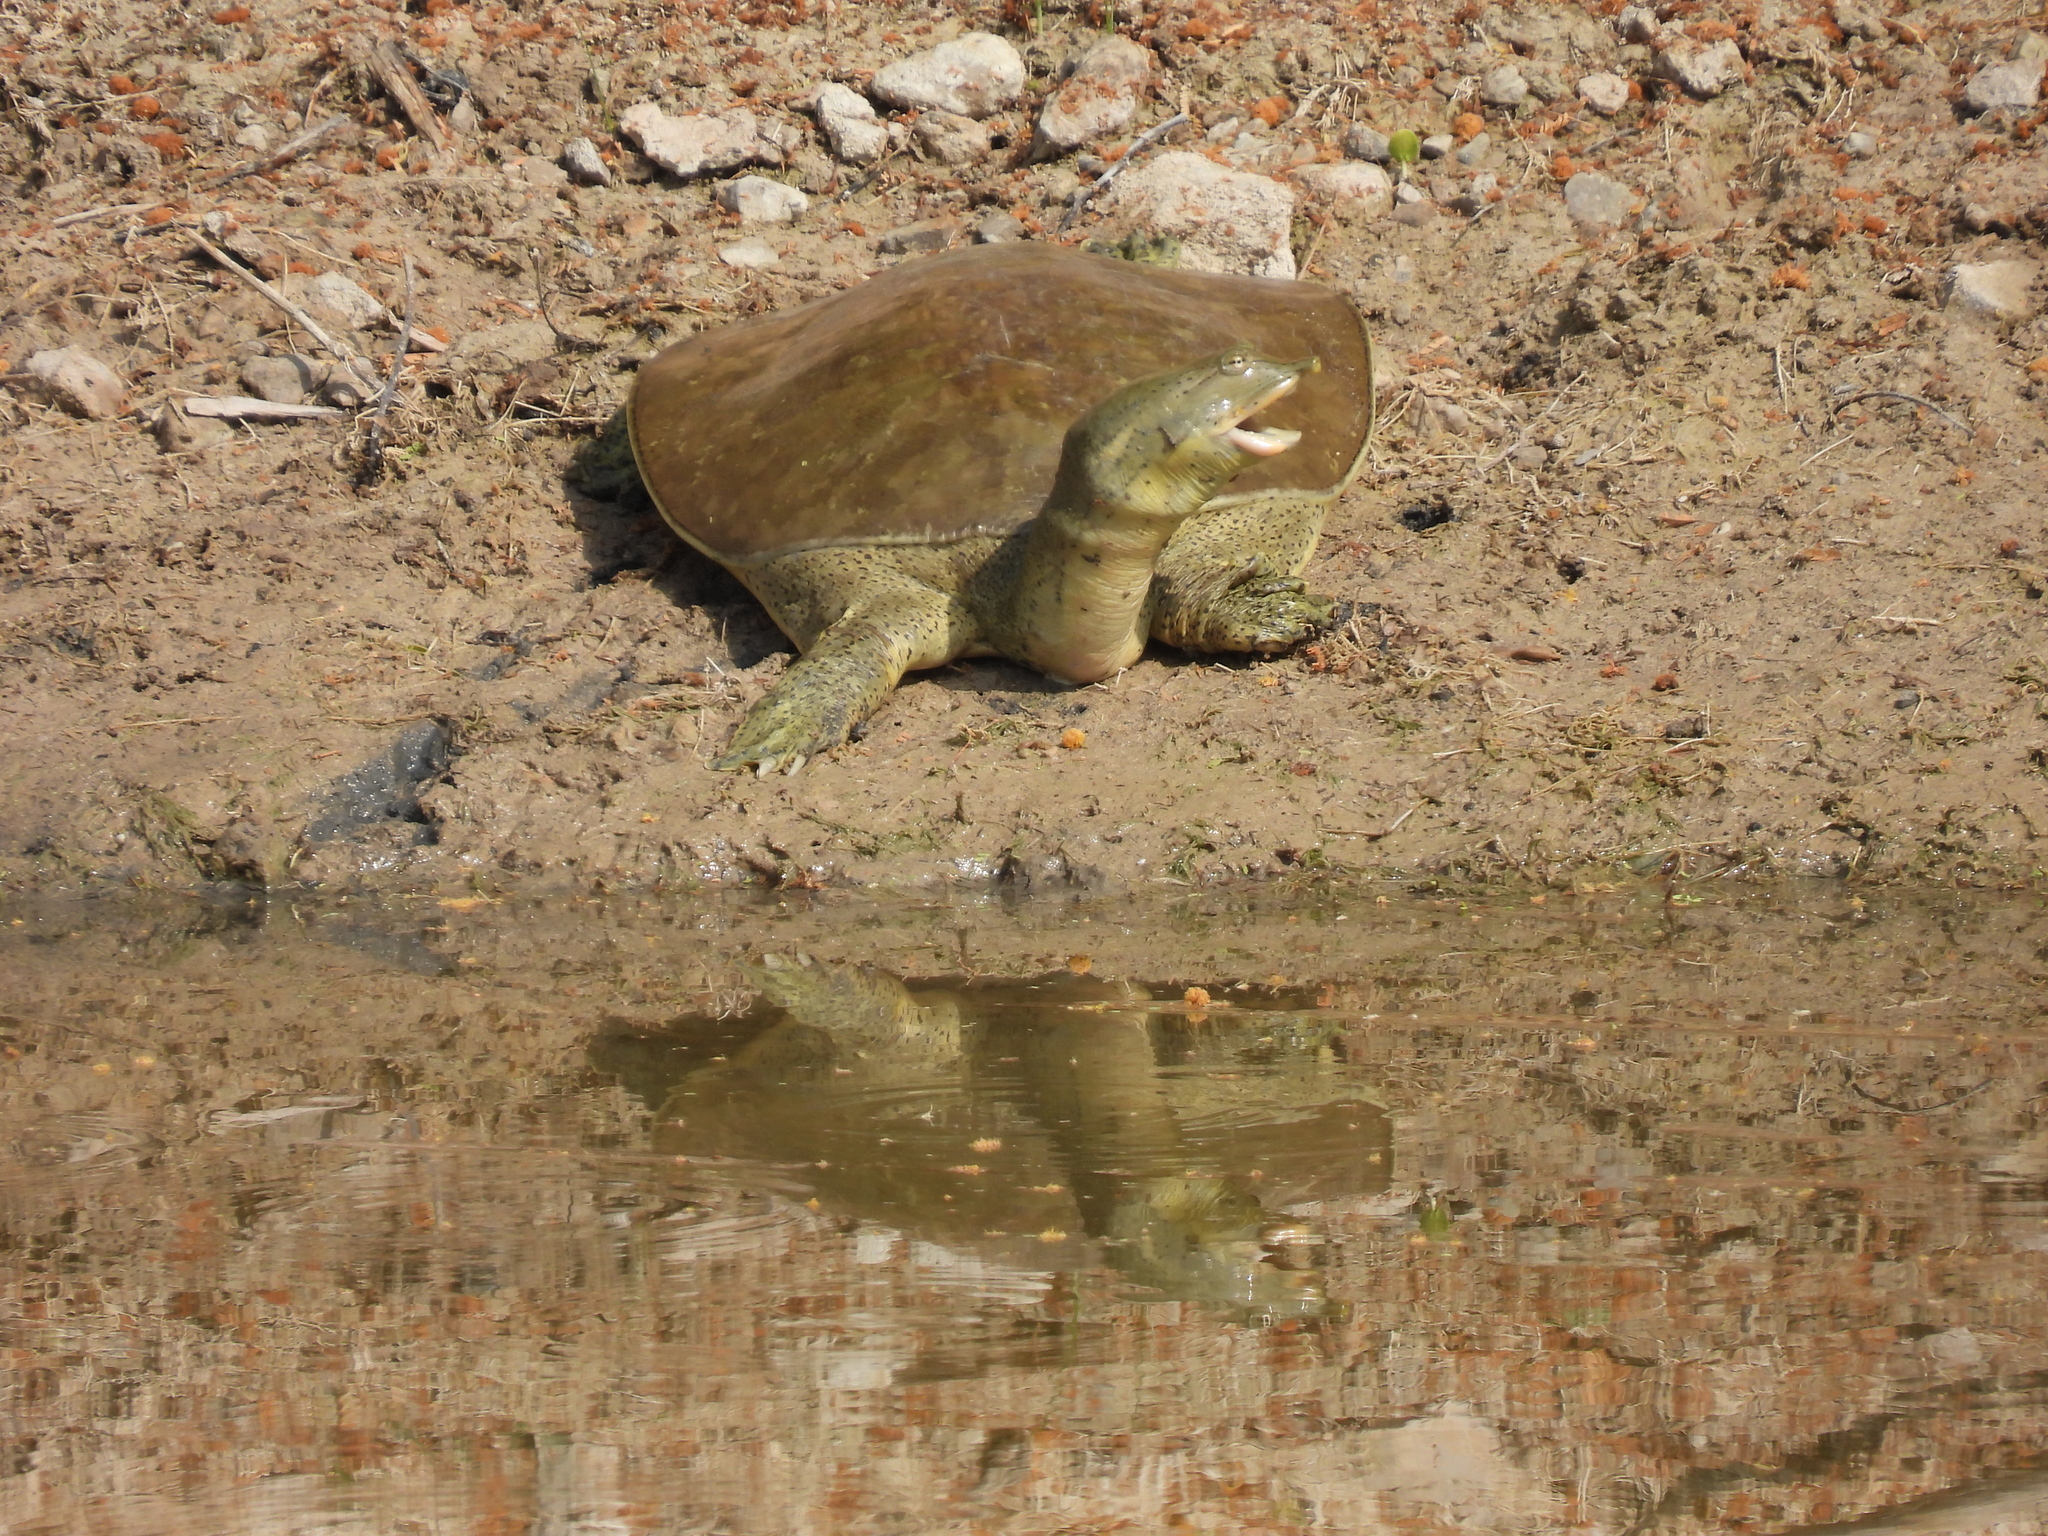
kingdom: Animalia
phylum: Chordata
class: Testudines
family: Trionychidae
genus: Apalone
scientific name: Apalone spinifera
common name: Spiny softshell turtle
